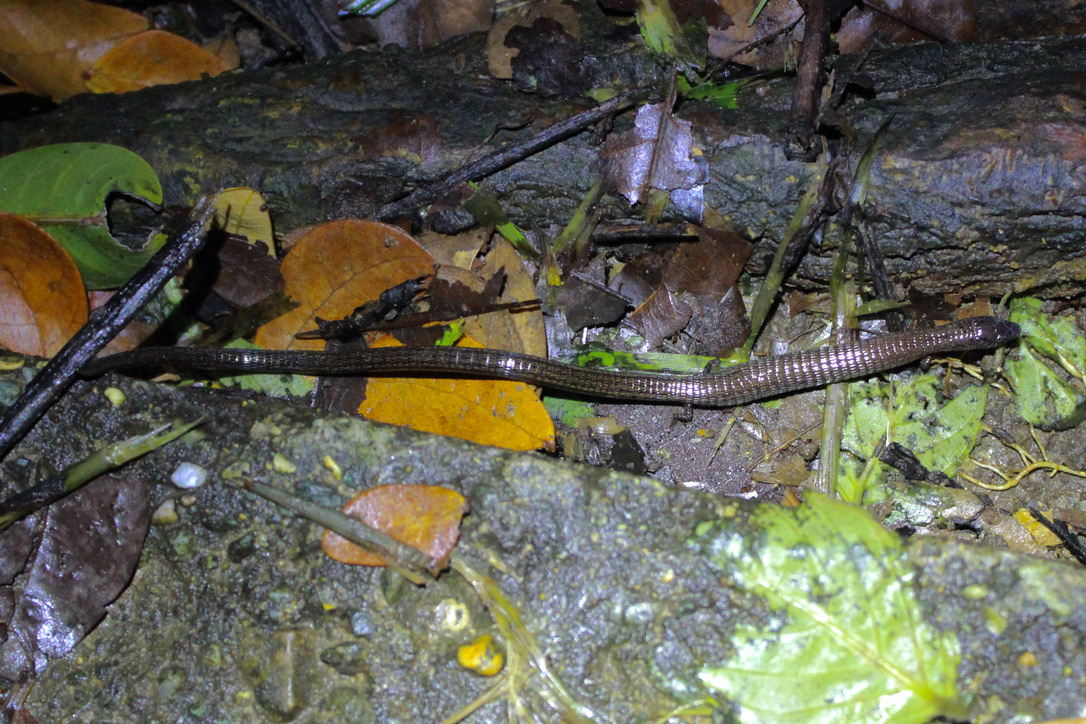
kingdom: Animalia
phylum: Chordata
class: Squamata
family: Gymnophthalmidae
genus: Bachia
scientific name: Bachia trinitatis
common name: Trinidad bachia
